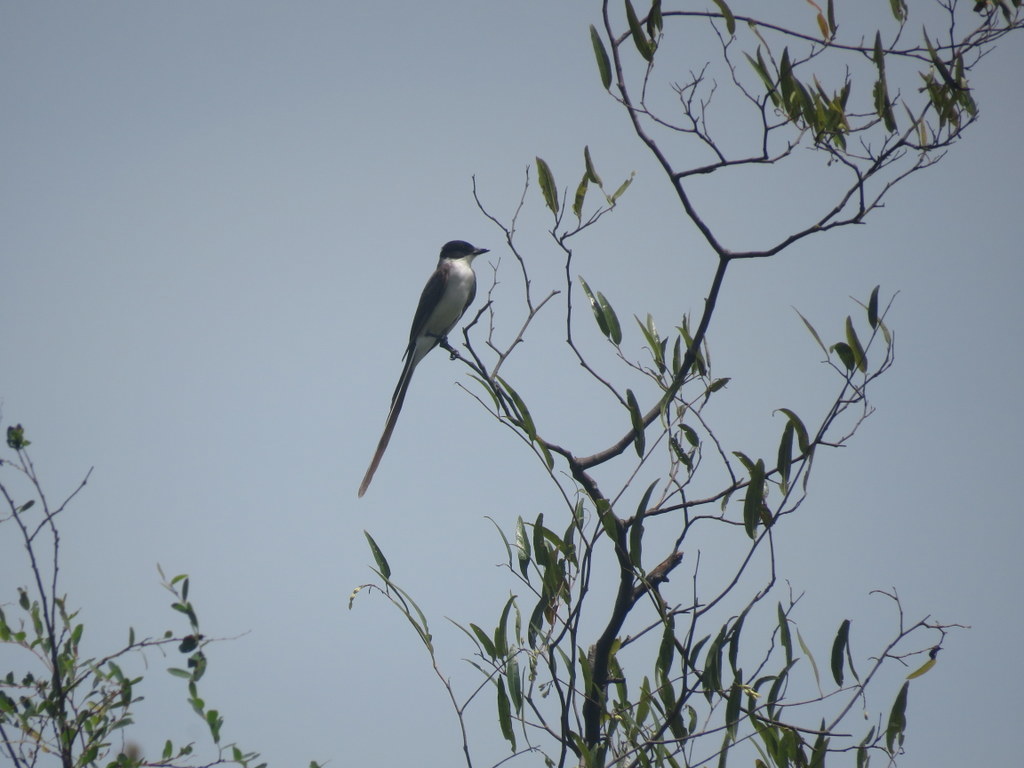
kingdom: Animalia
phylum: Chordata
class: Aves
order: Passeriformes
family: Tyrannidae
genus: Tyrannus
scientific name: Tyrannus savana
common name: Fork-tailed flycatcher
